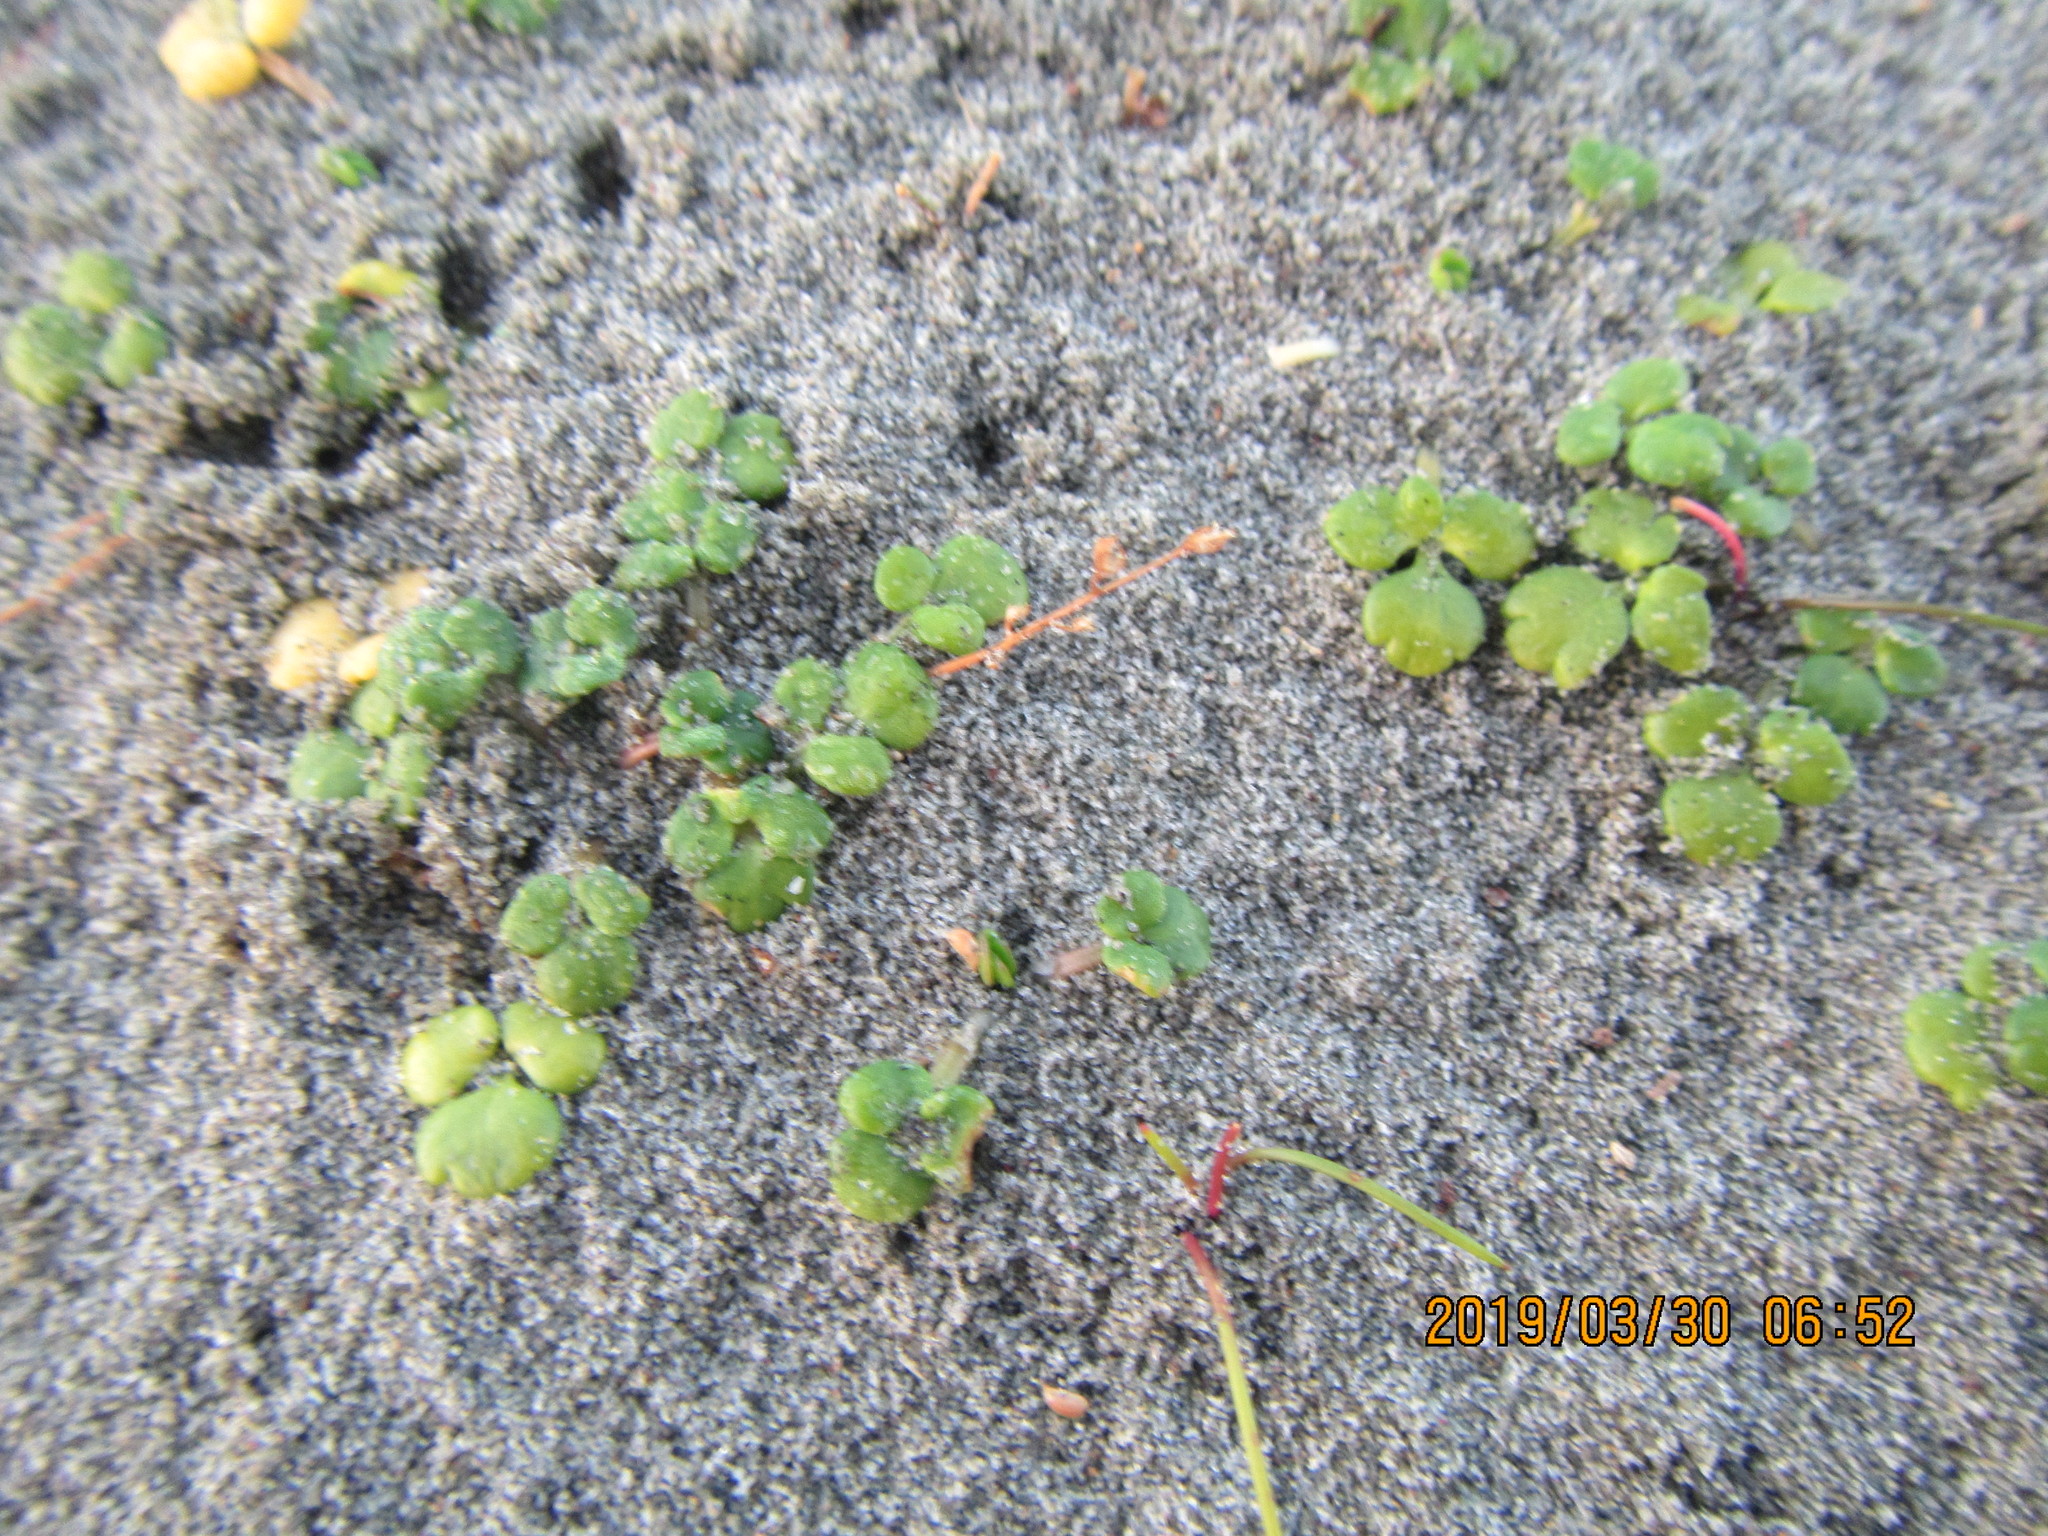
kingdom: Plantae
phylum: Tracheophyta
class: Magnoliopsida
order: Ranunculales
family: Ranunculaceae
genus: Ranunculus
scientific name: Ranunculus acaulis
